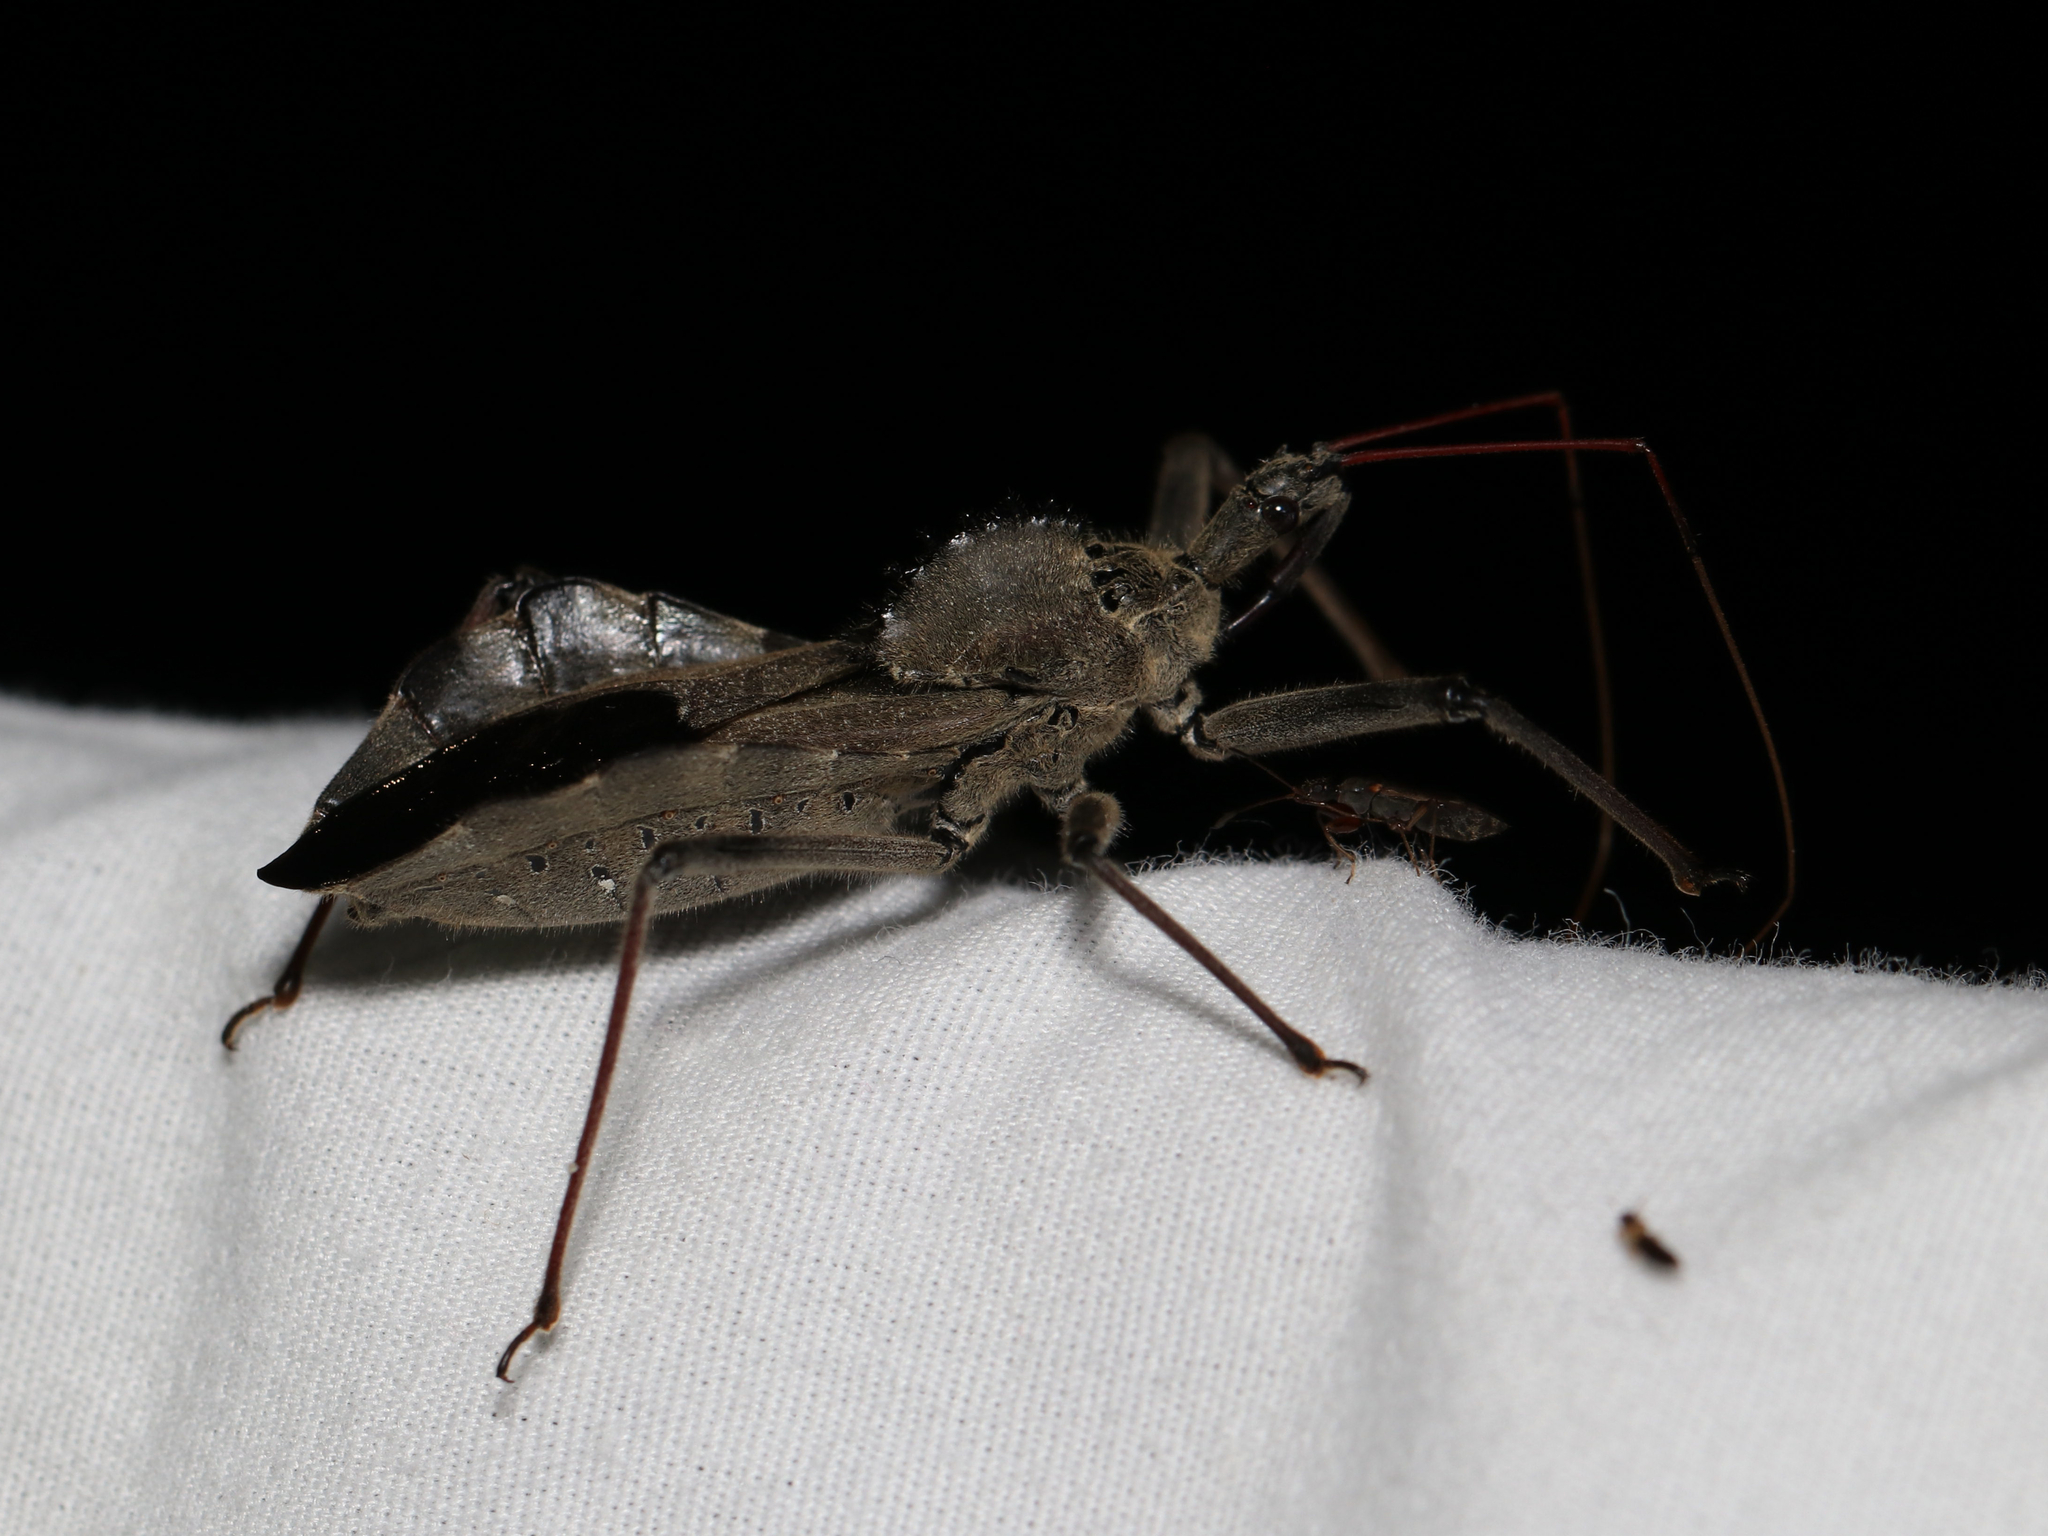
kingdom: Animalia
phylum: Arthropoda
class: Insecta
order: Hemiptera
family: Reduviidae
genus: Arilus
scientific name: Arilus cristatus
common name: North american wheel bug
